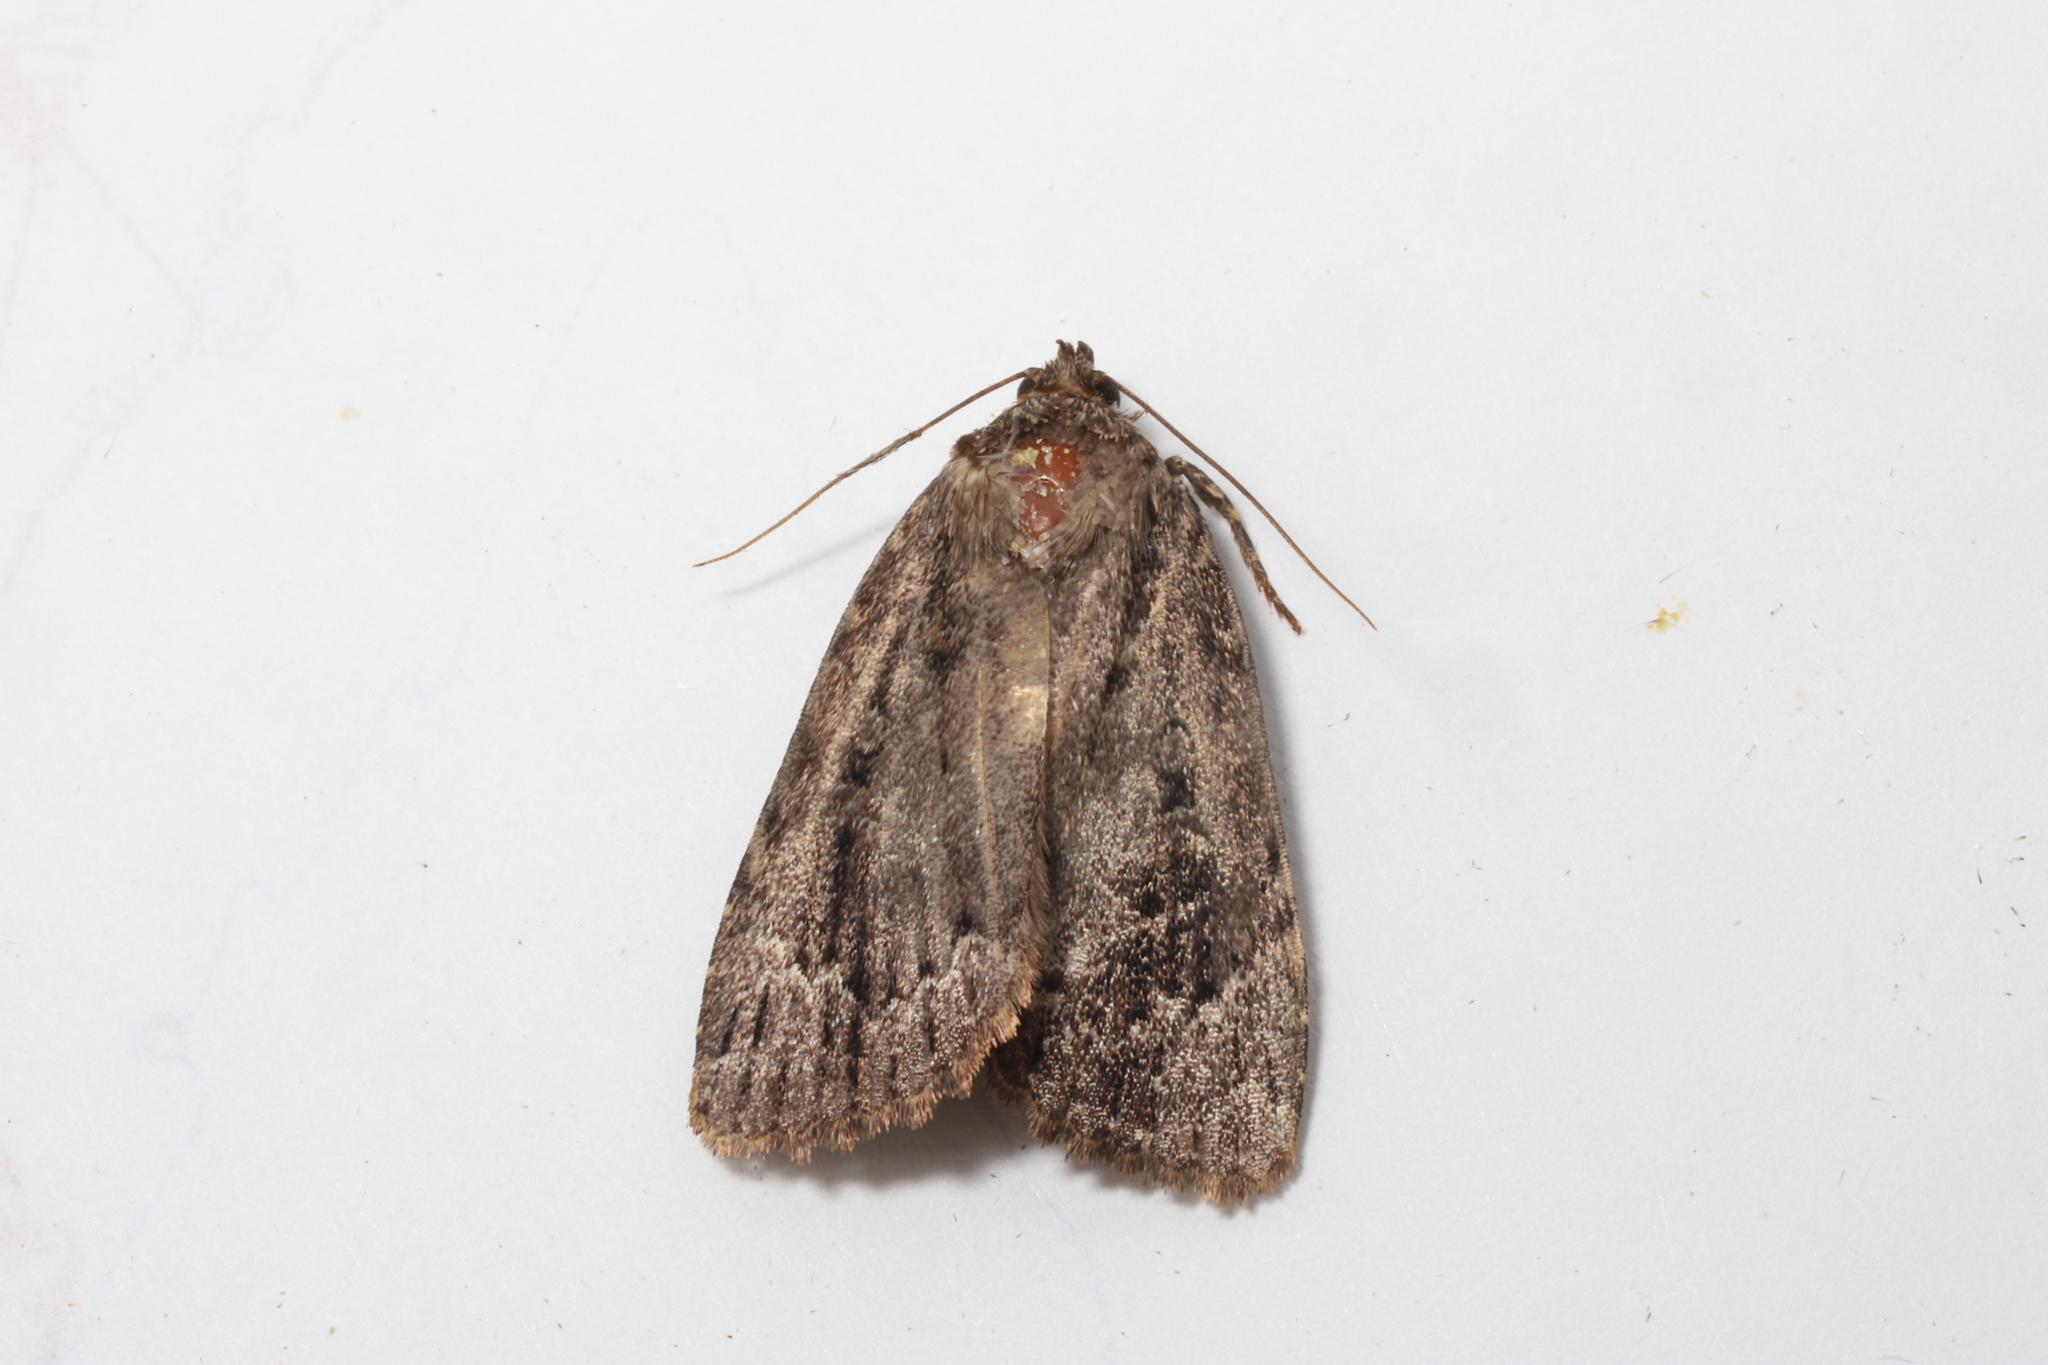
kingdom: Animalia
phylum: Arthropoda
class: Insecta
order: Lepidoptera
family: Noctuidae
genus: Amphipyra
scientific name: Amphipyra pyramidoides
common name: American copper underwing
